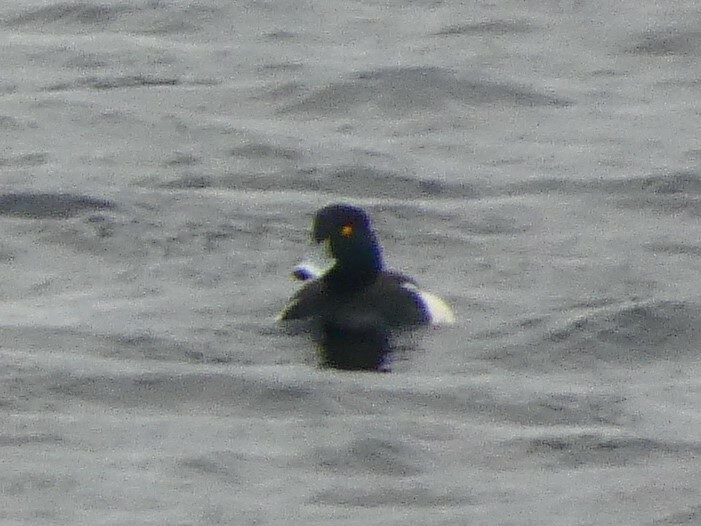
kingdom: Animalia
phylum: Chordata
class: Aves
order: Anseriformes
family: Anatidae
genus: Aythya
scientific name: Aythya collaris
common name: Ring-necked duck
